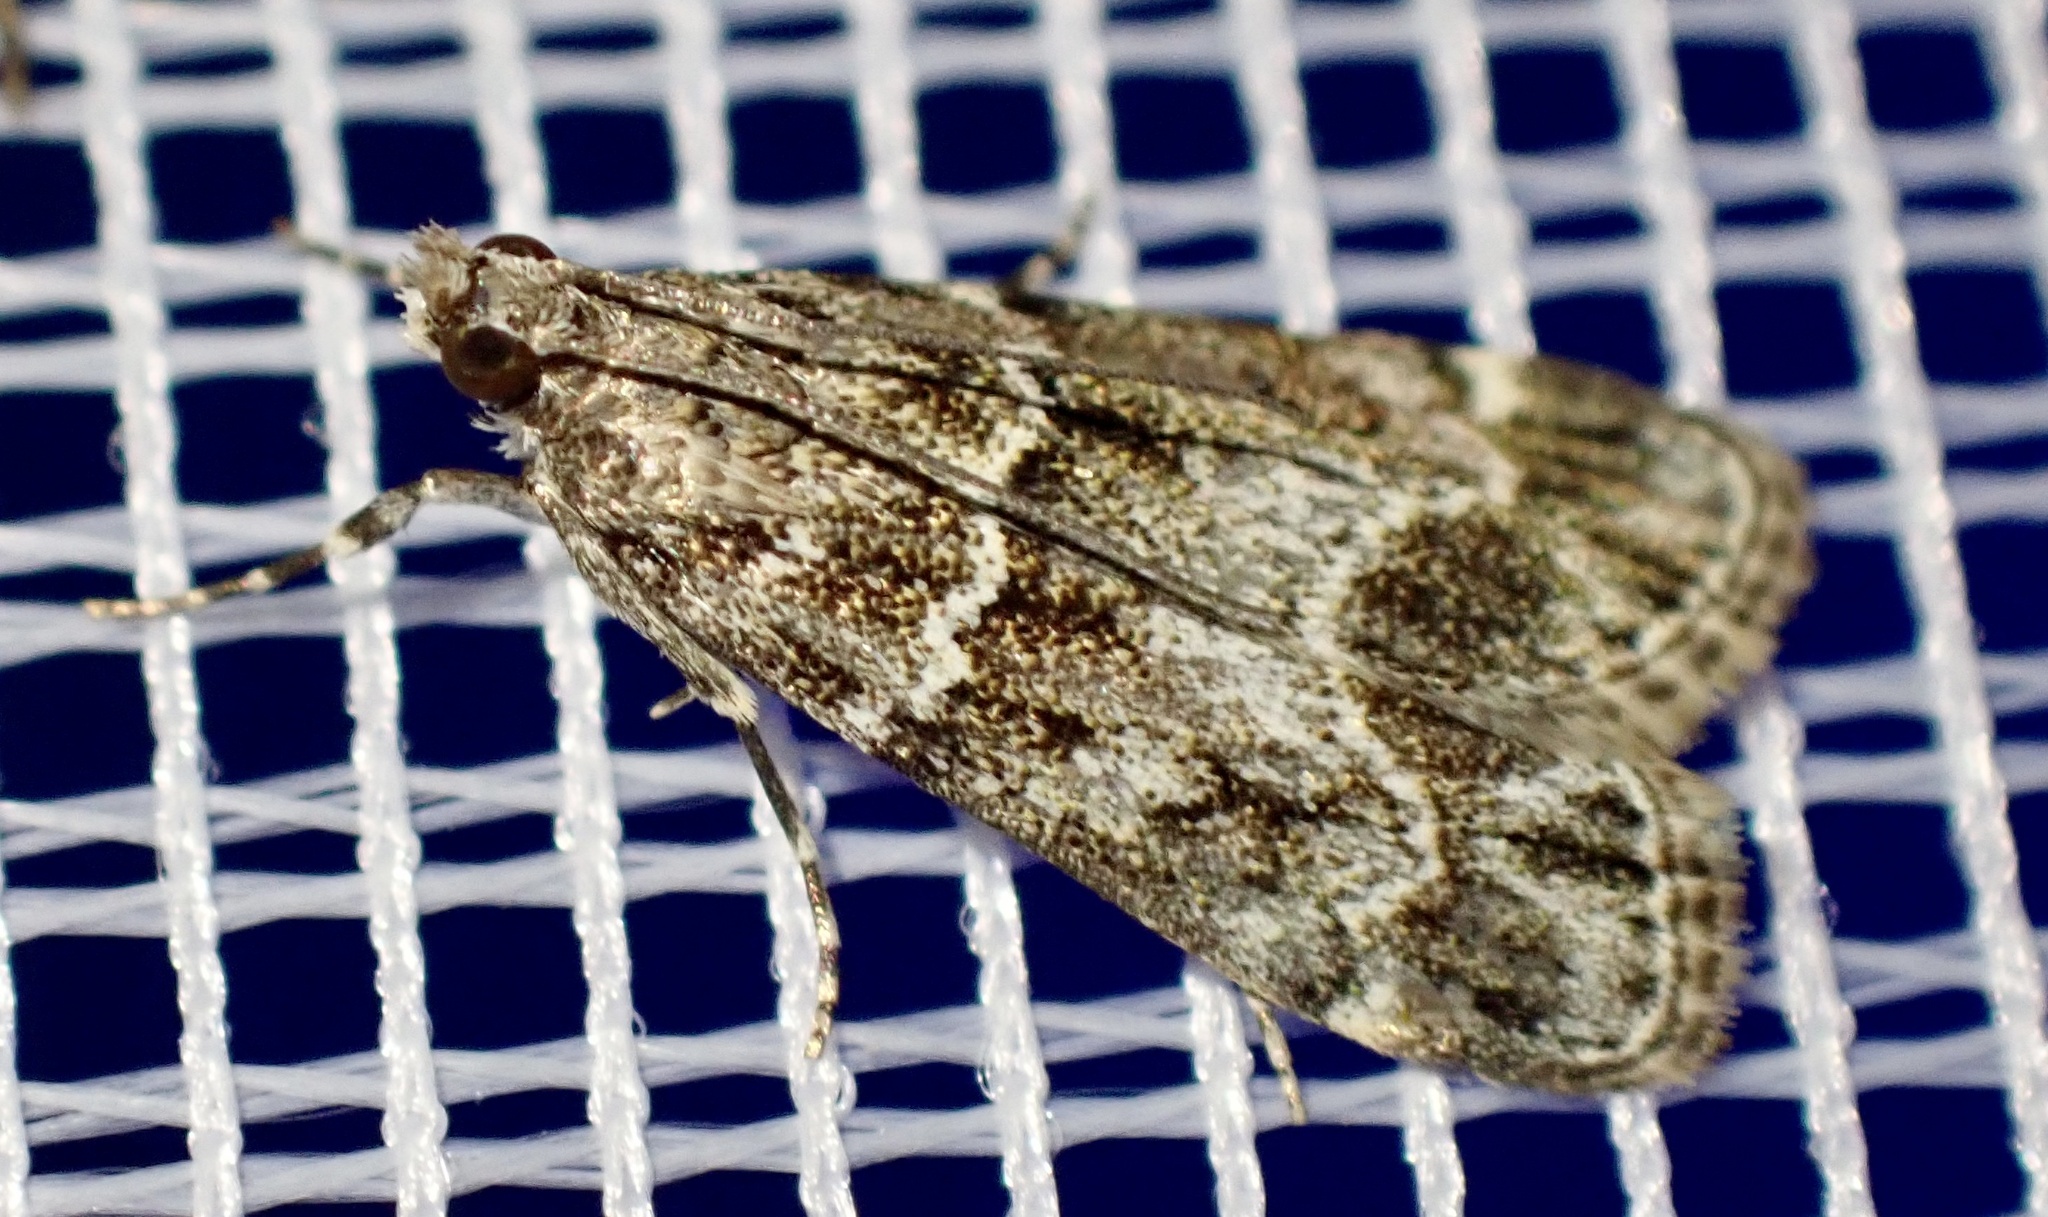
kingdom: Animalia
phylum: Arthropoda
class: Insecta
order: Lepidoptera
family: Crambidae
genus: Eudonia
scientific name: Eudonia mercurella
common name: Small grey
